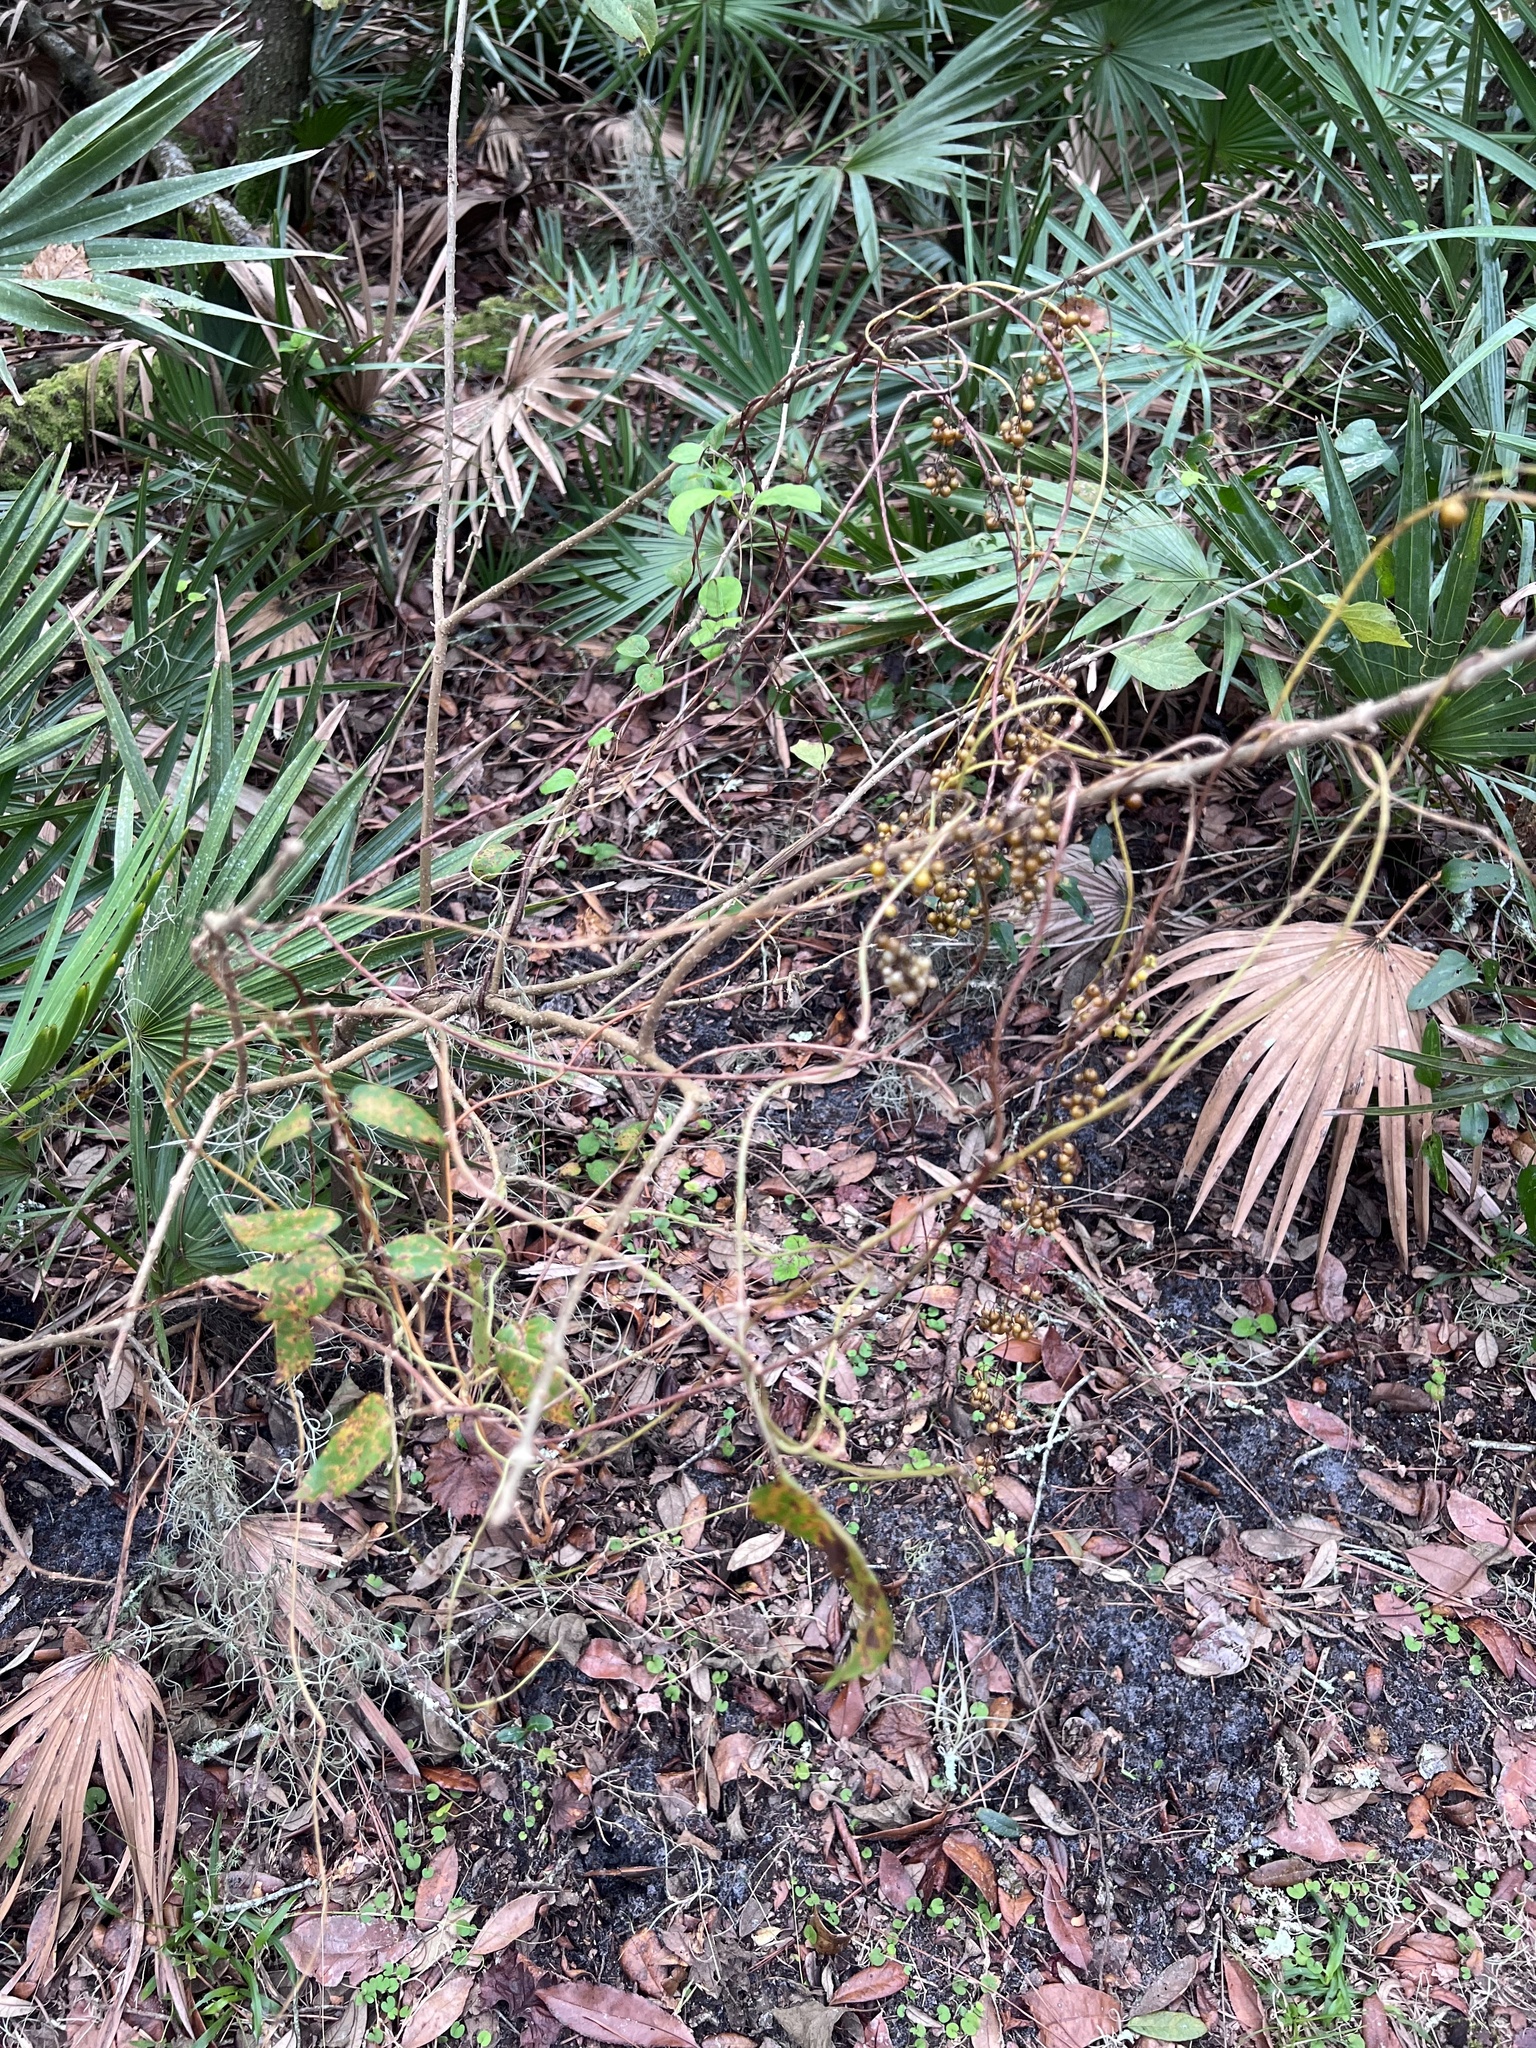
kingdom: Plantae
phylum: Tracheophyta
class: Magnoliopsida
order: Gentianales
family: Rubiaceae
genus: Paederia
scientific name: Paederia foetida
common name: Stinkvine
